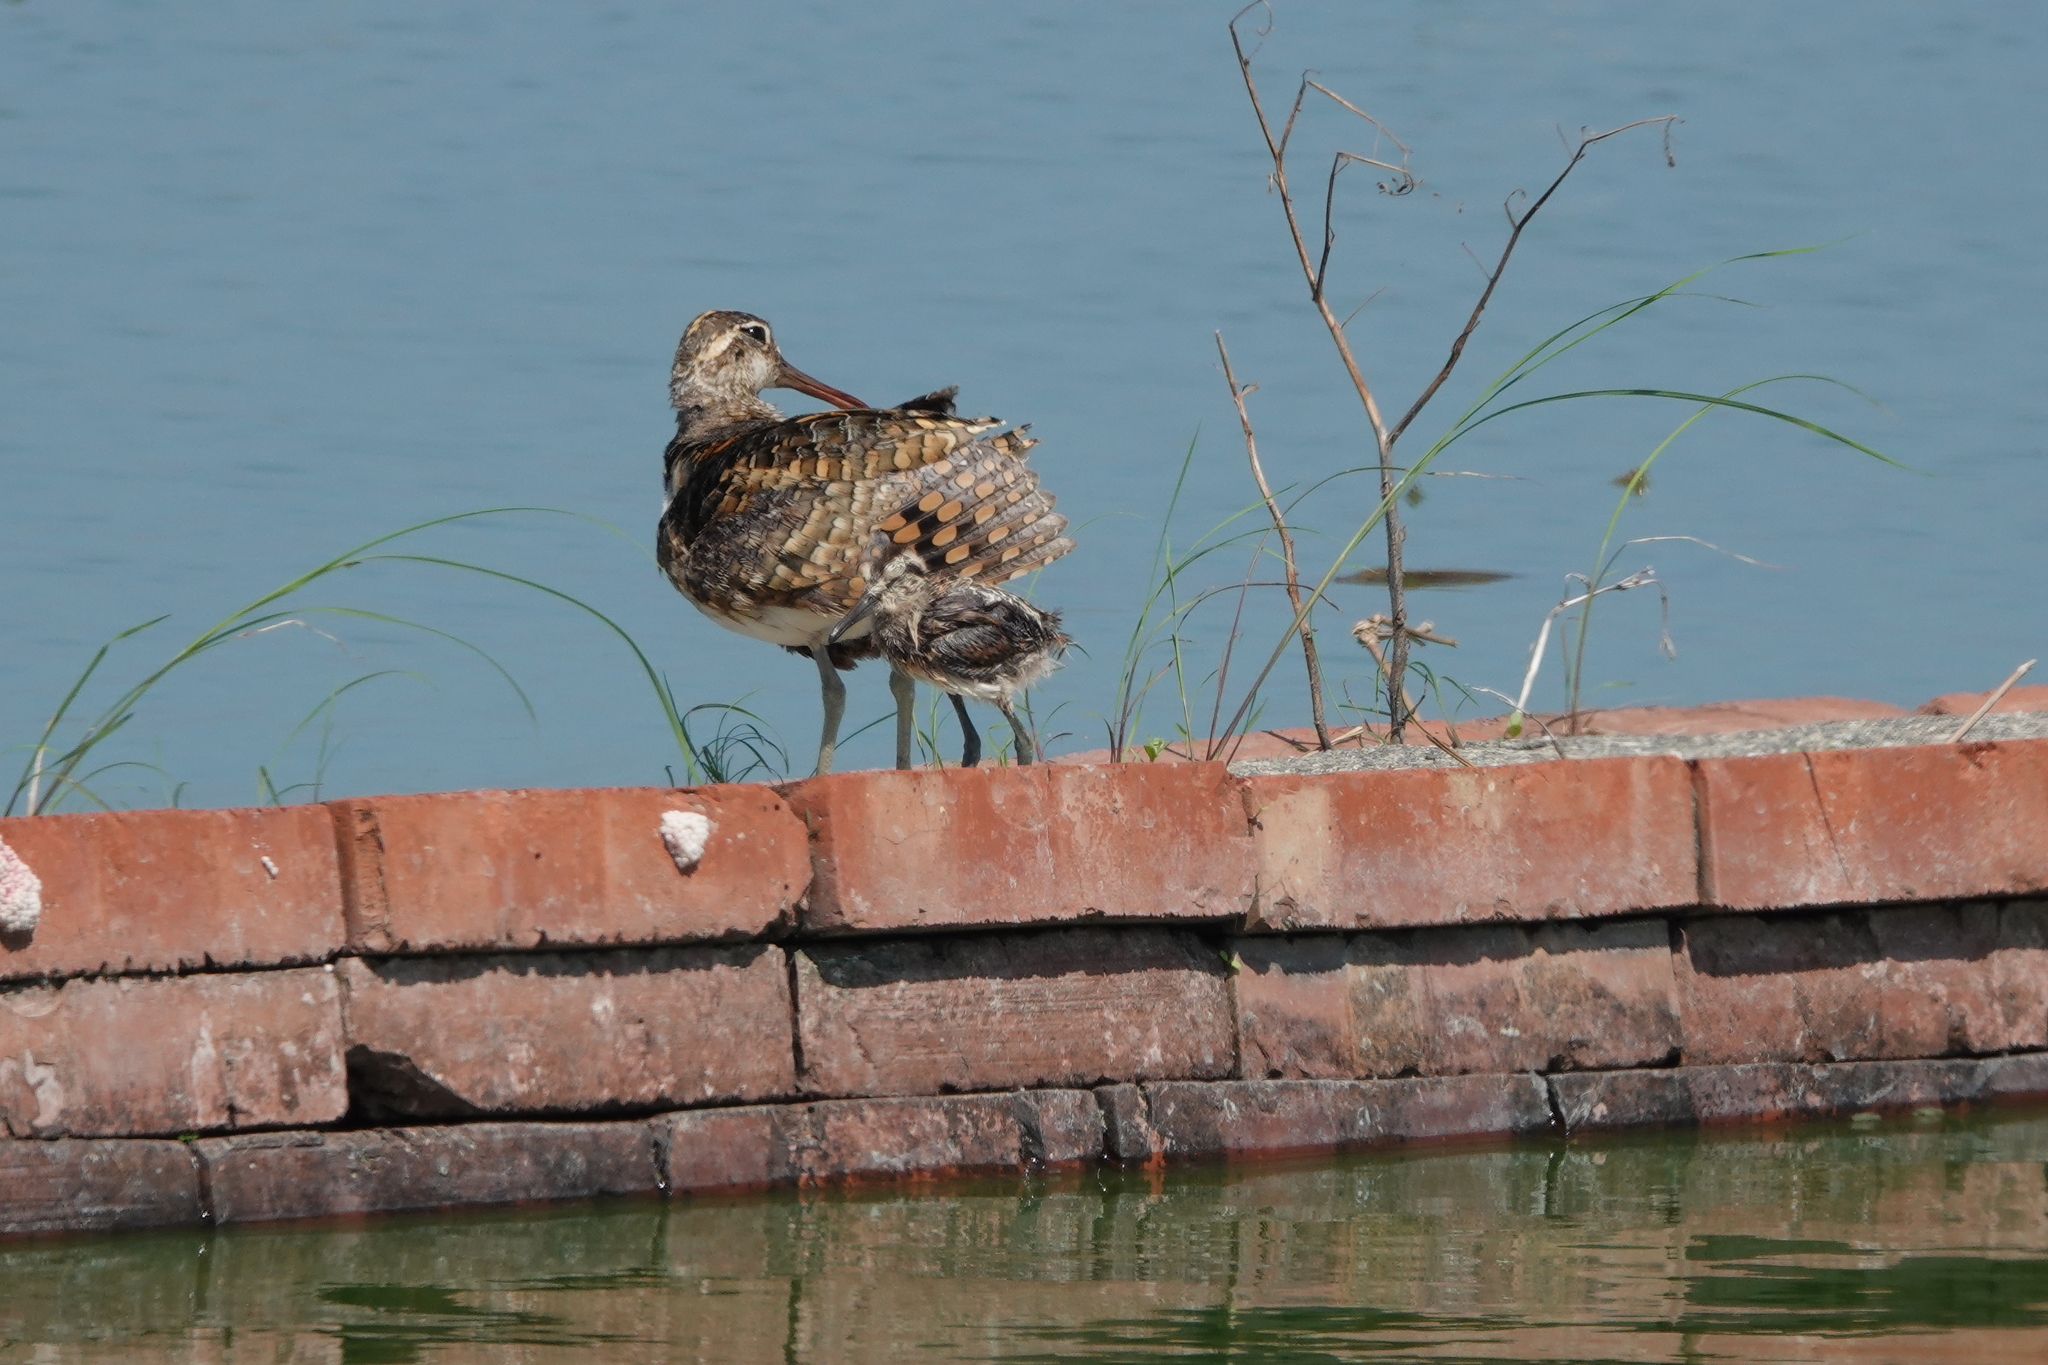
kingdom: Animalia
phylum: Chordata
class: Aves
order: Charadriiformes
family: Rostratulidae
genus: Rostratula
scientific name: Rostratula benghalensis
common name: Greater painted-snipe
